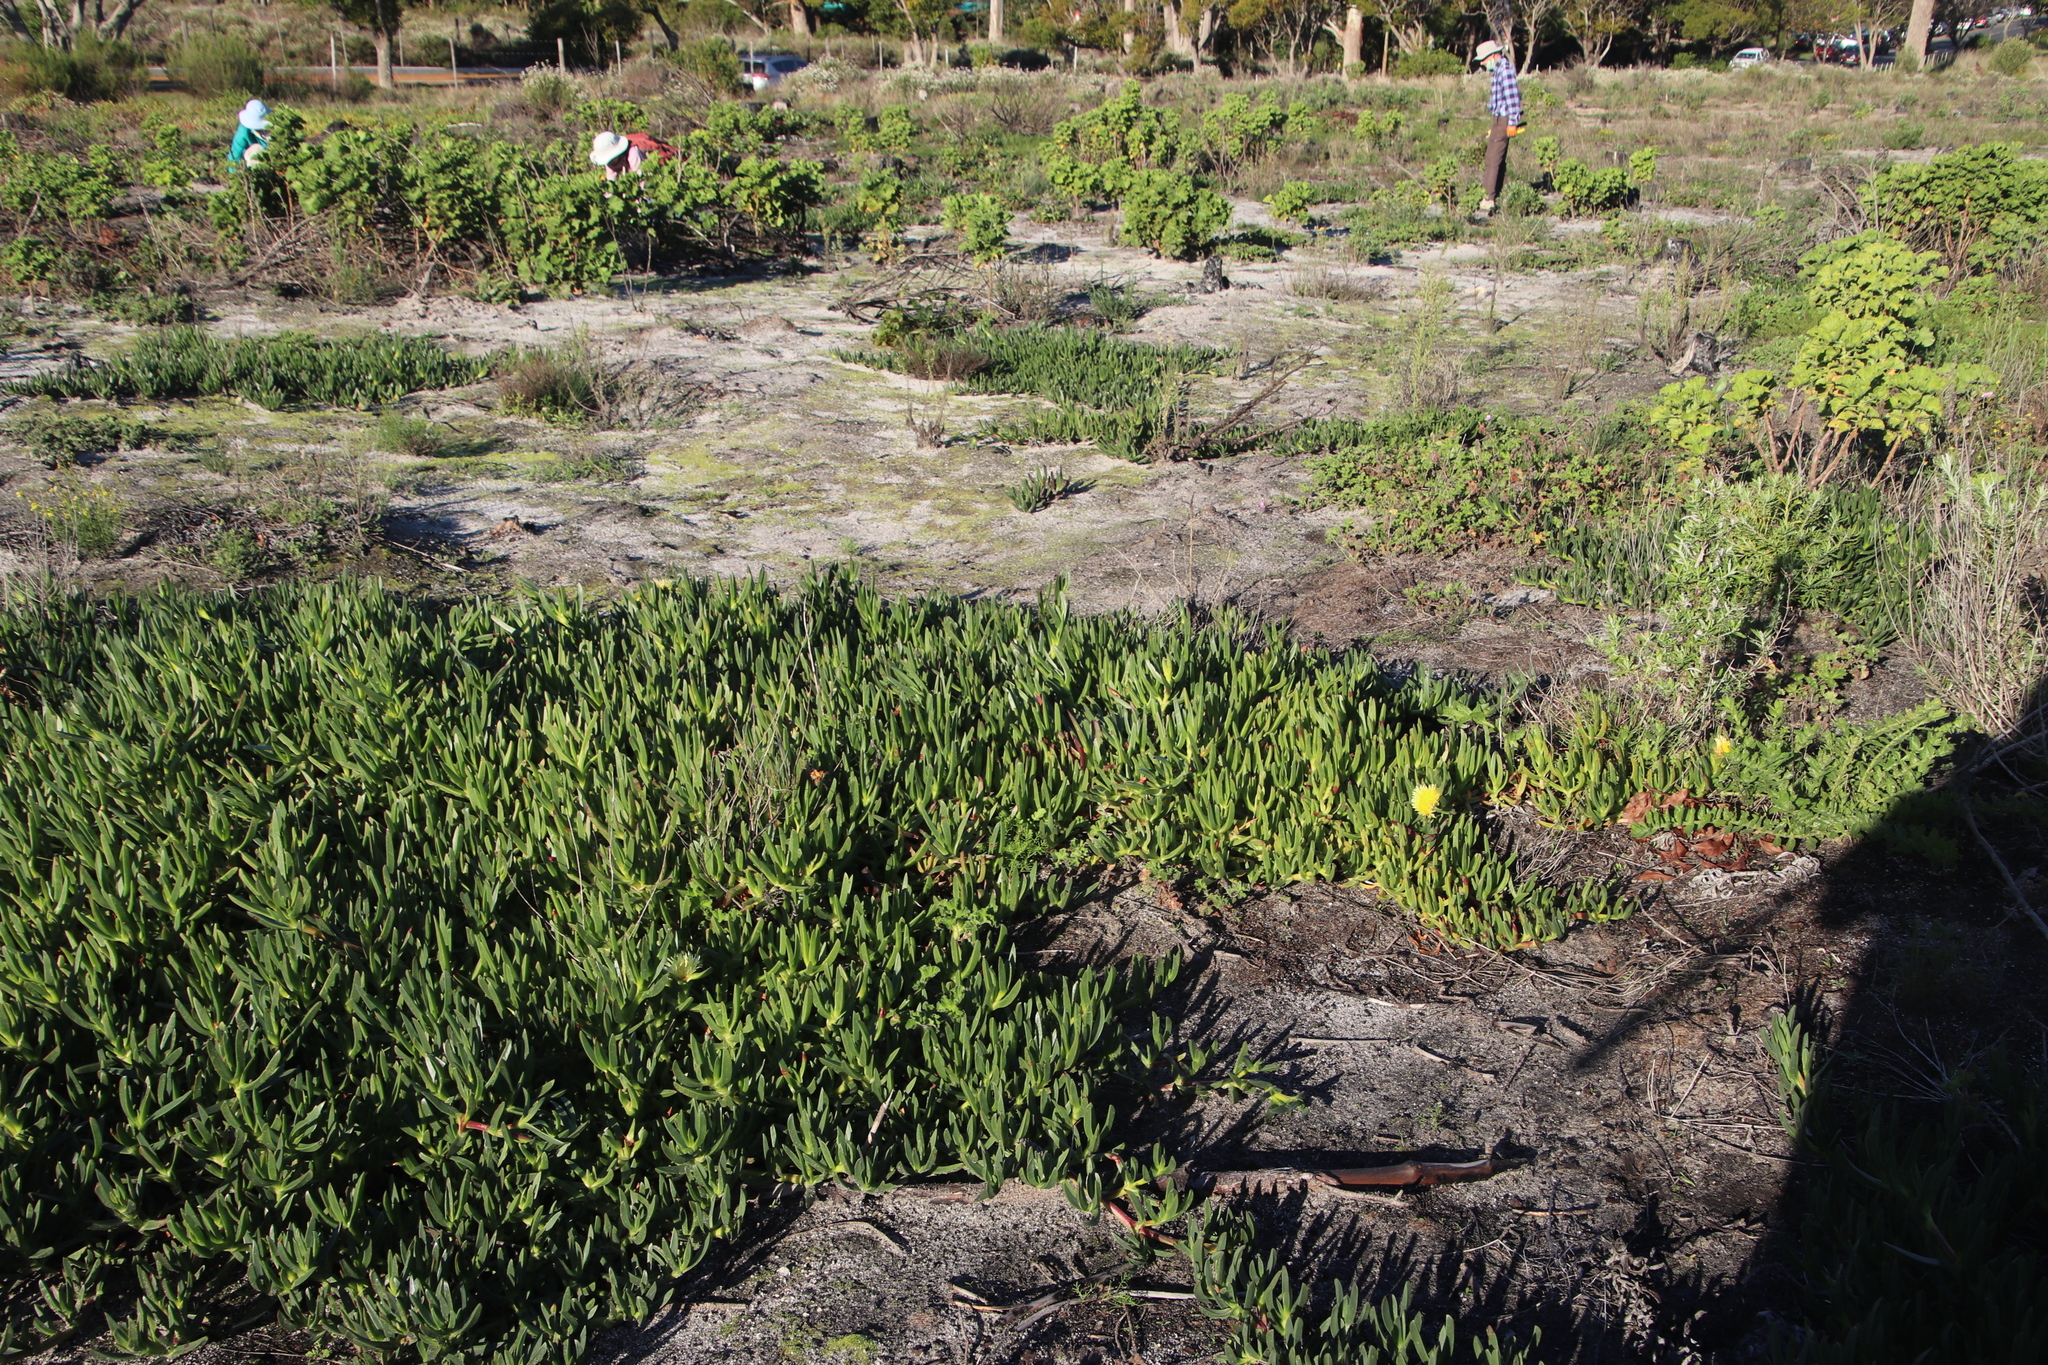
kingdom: Plantae
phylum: Tracheophyta
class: Magnoliopsida
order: Caryophyllales
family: Aizoaceae
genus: Carpobrotus
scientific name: Carpobrotus edulis
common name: Hottentot-fig
